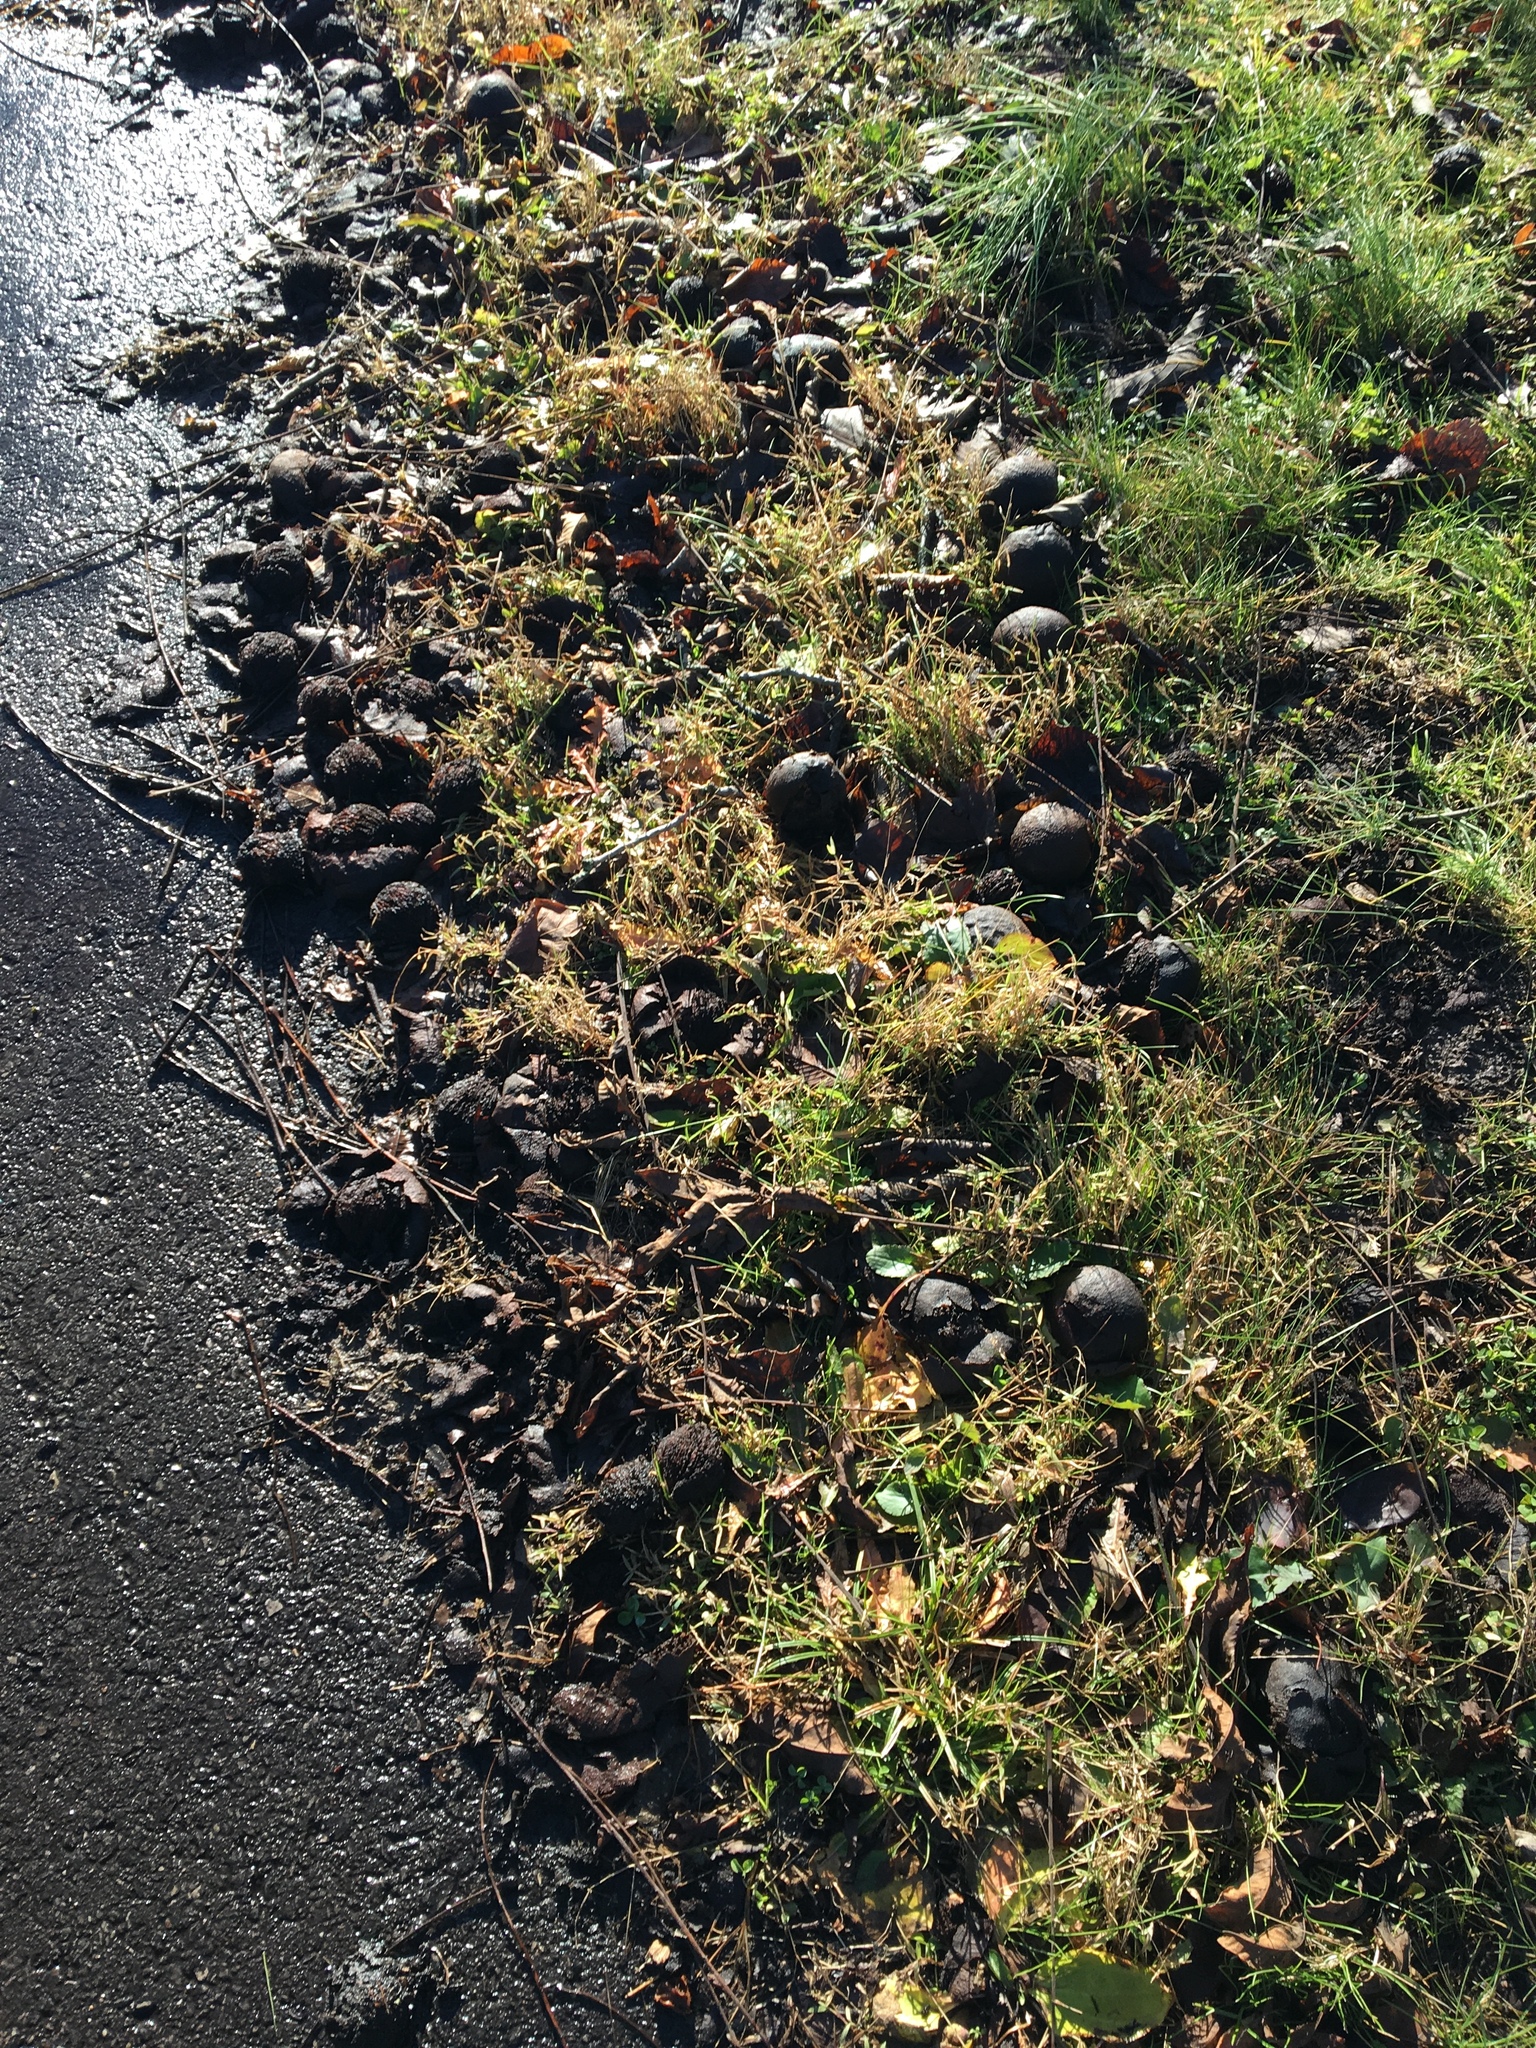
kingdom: Plantae
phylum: Tracheophyta
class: Magnoliopsida
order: Fagales
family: Juglandaceae
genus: Juglans
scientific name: Juglans nigra
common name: Black walnut
